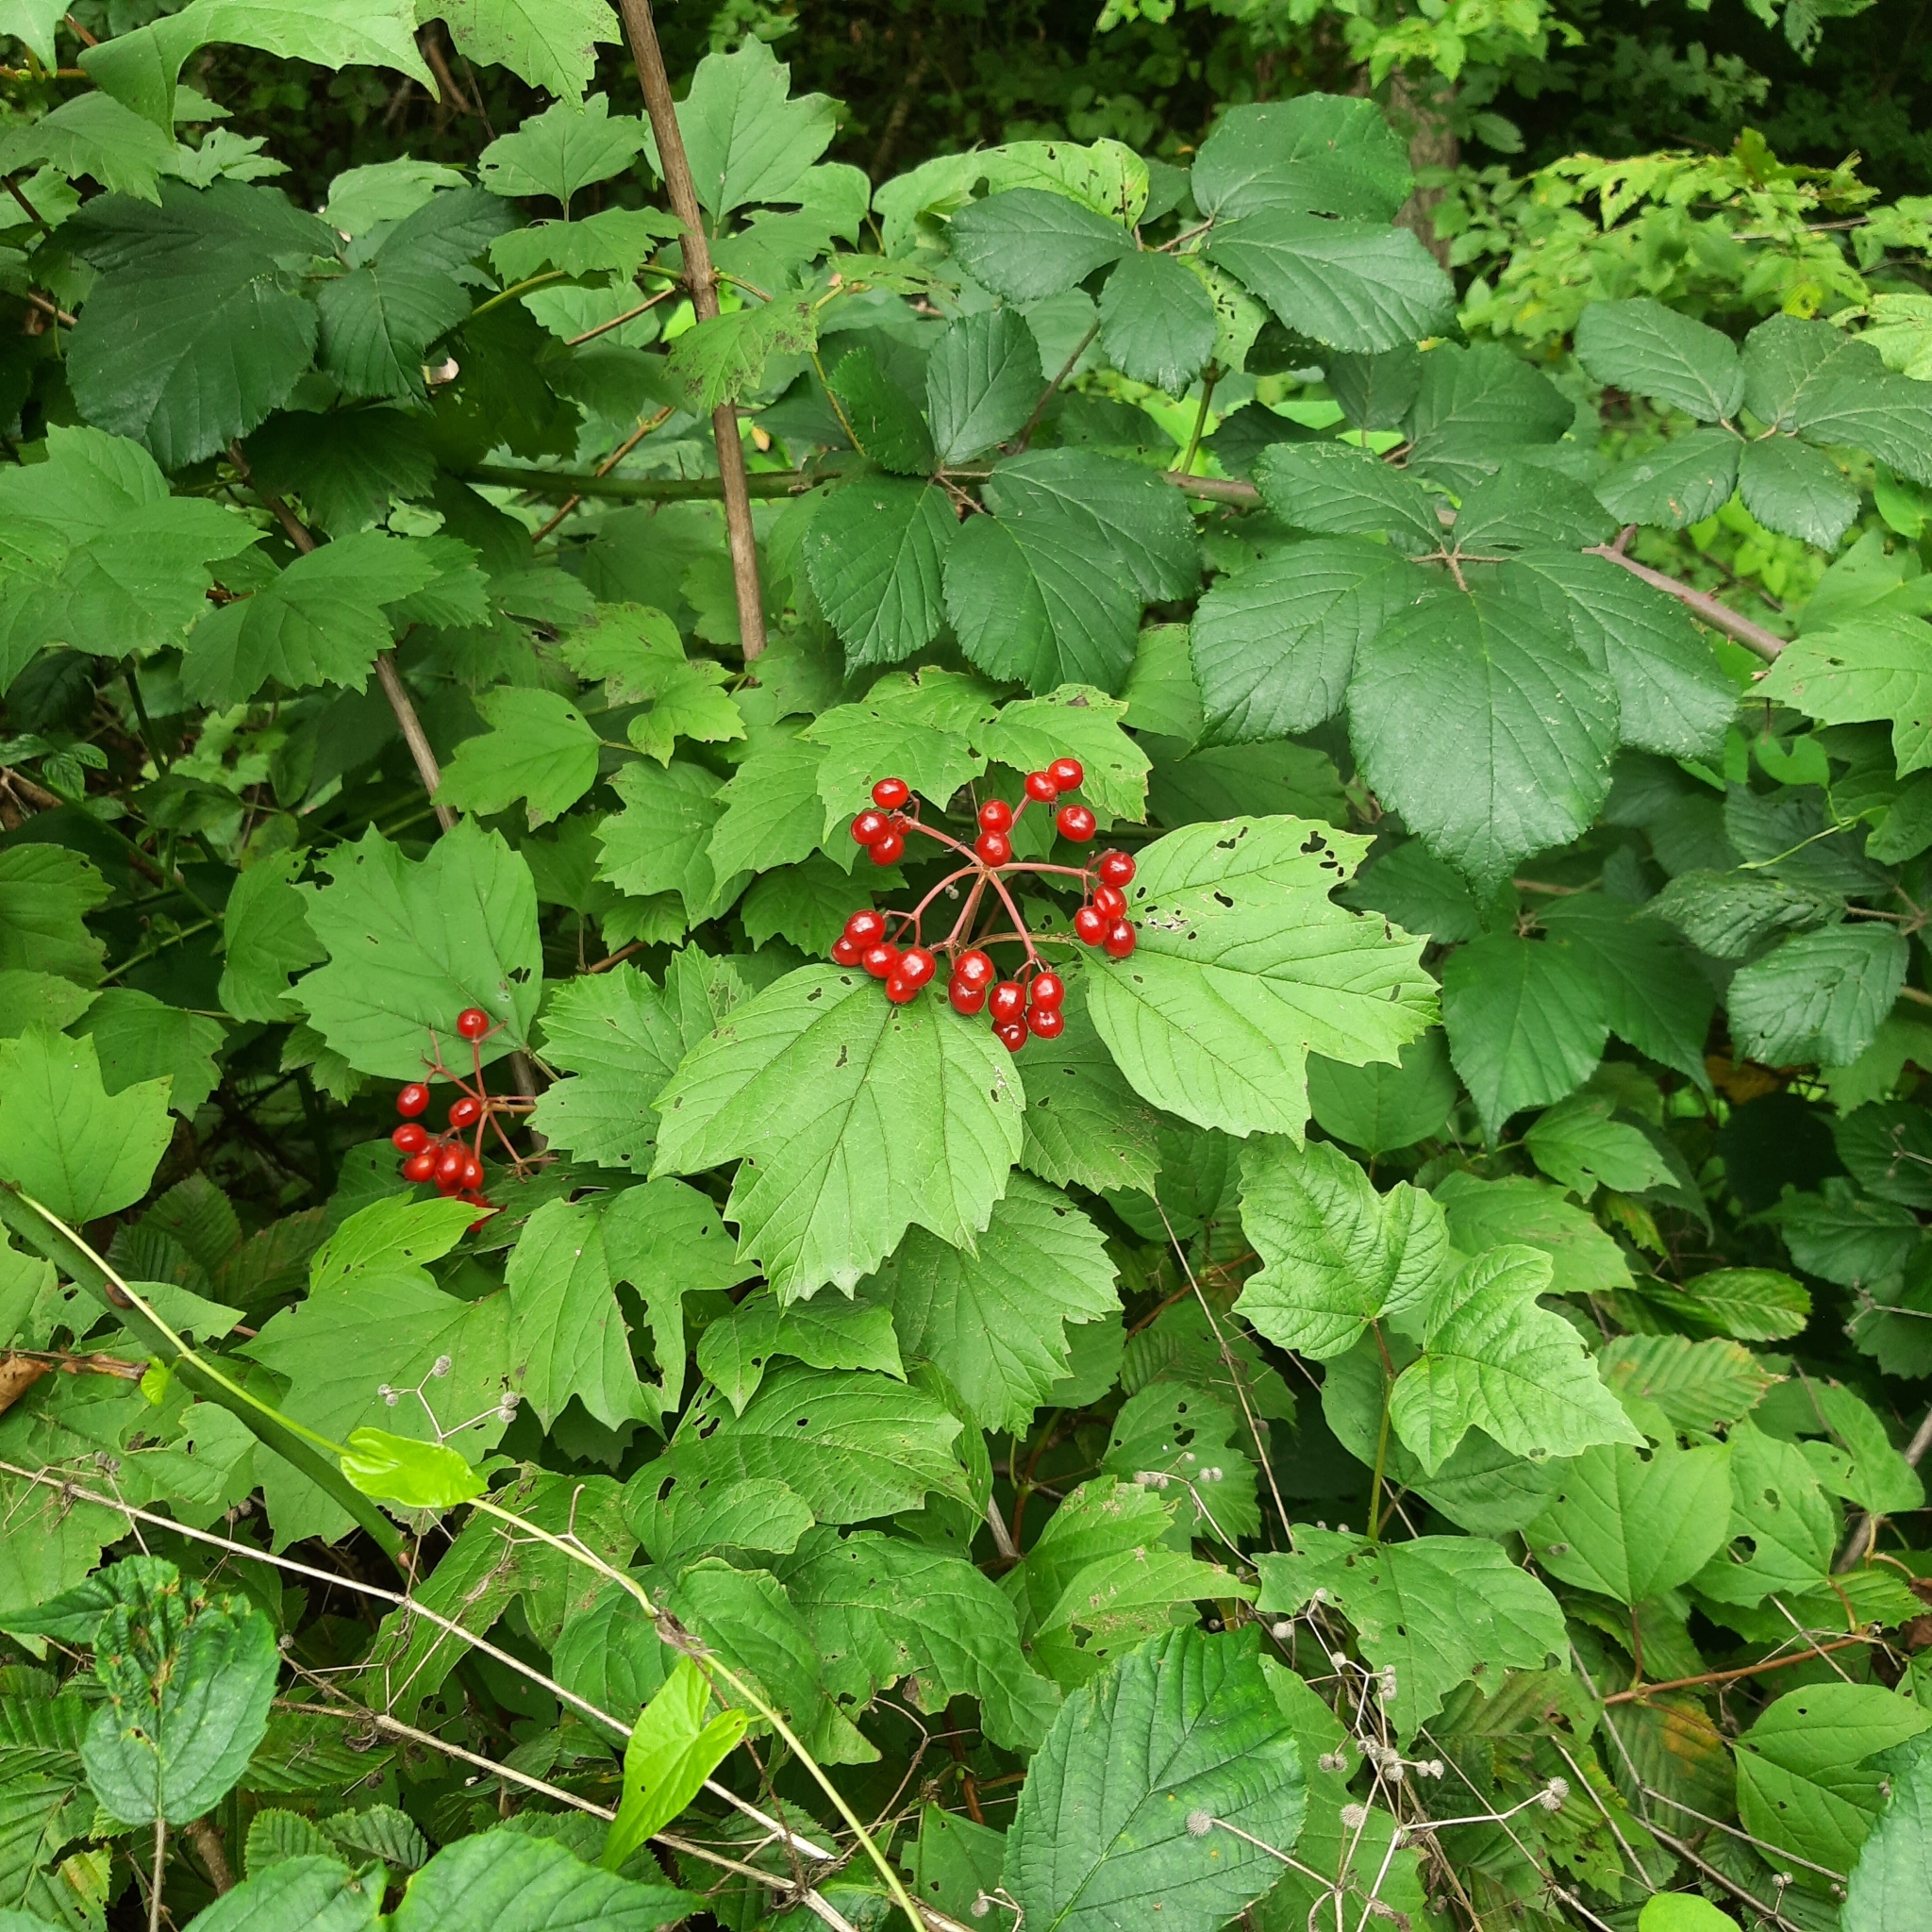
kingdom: Plantae
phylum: Tracheophyta
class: Magnoliopsida
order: Dipsacales
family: Viburnaceae
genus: Viburnum
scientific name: Viburnum opulus
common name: Guelder-rose
